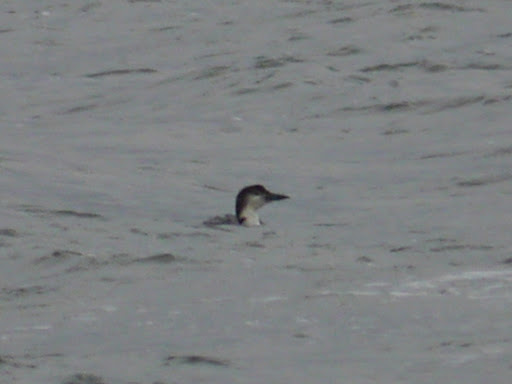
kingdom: Animalia
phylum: Chordata
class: Aves
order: Gaviiformes
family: Gaviidae
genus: Gavia
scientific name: Gavia immer
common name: Common loon
